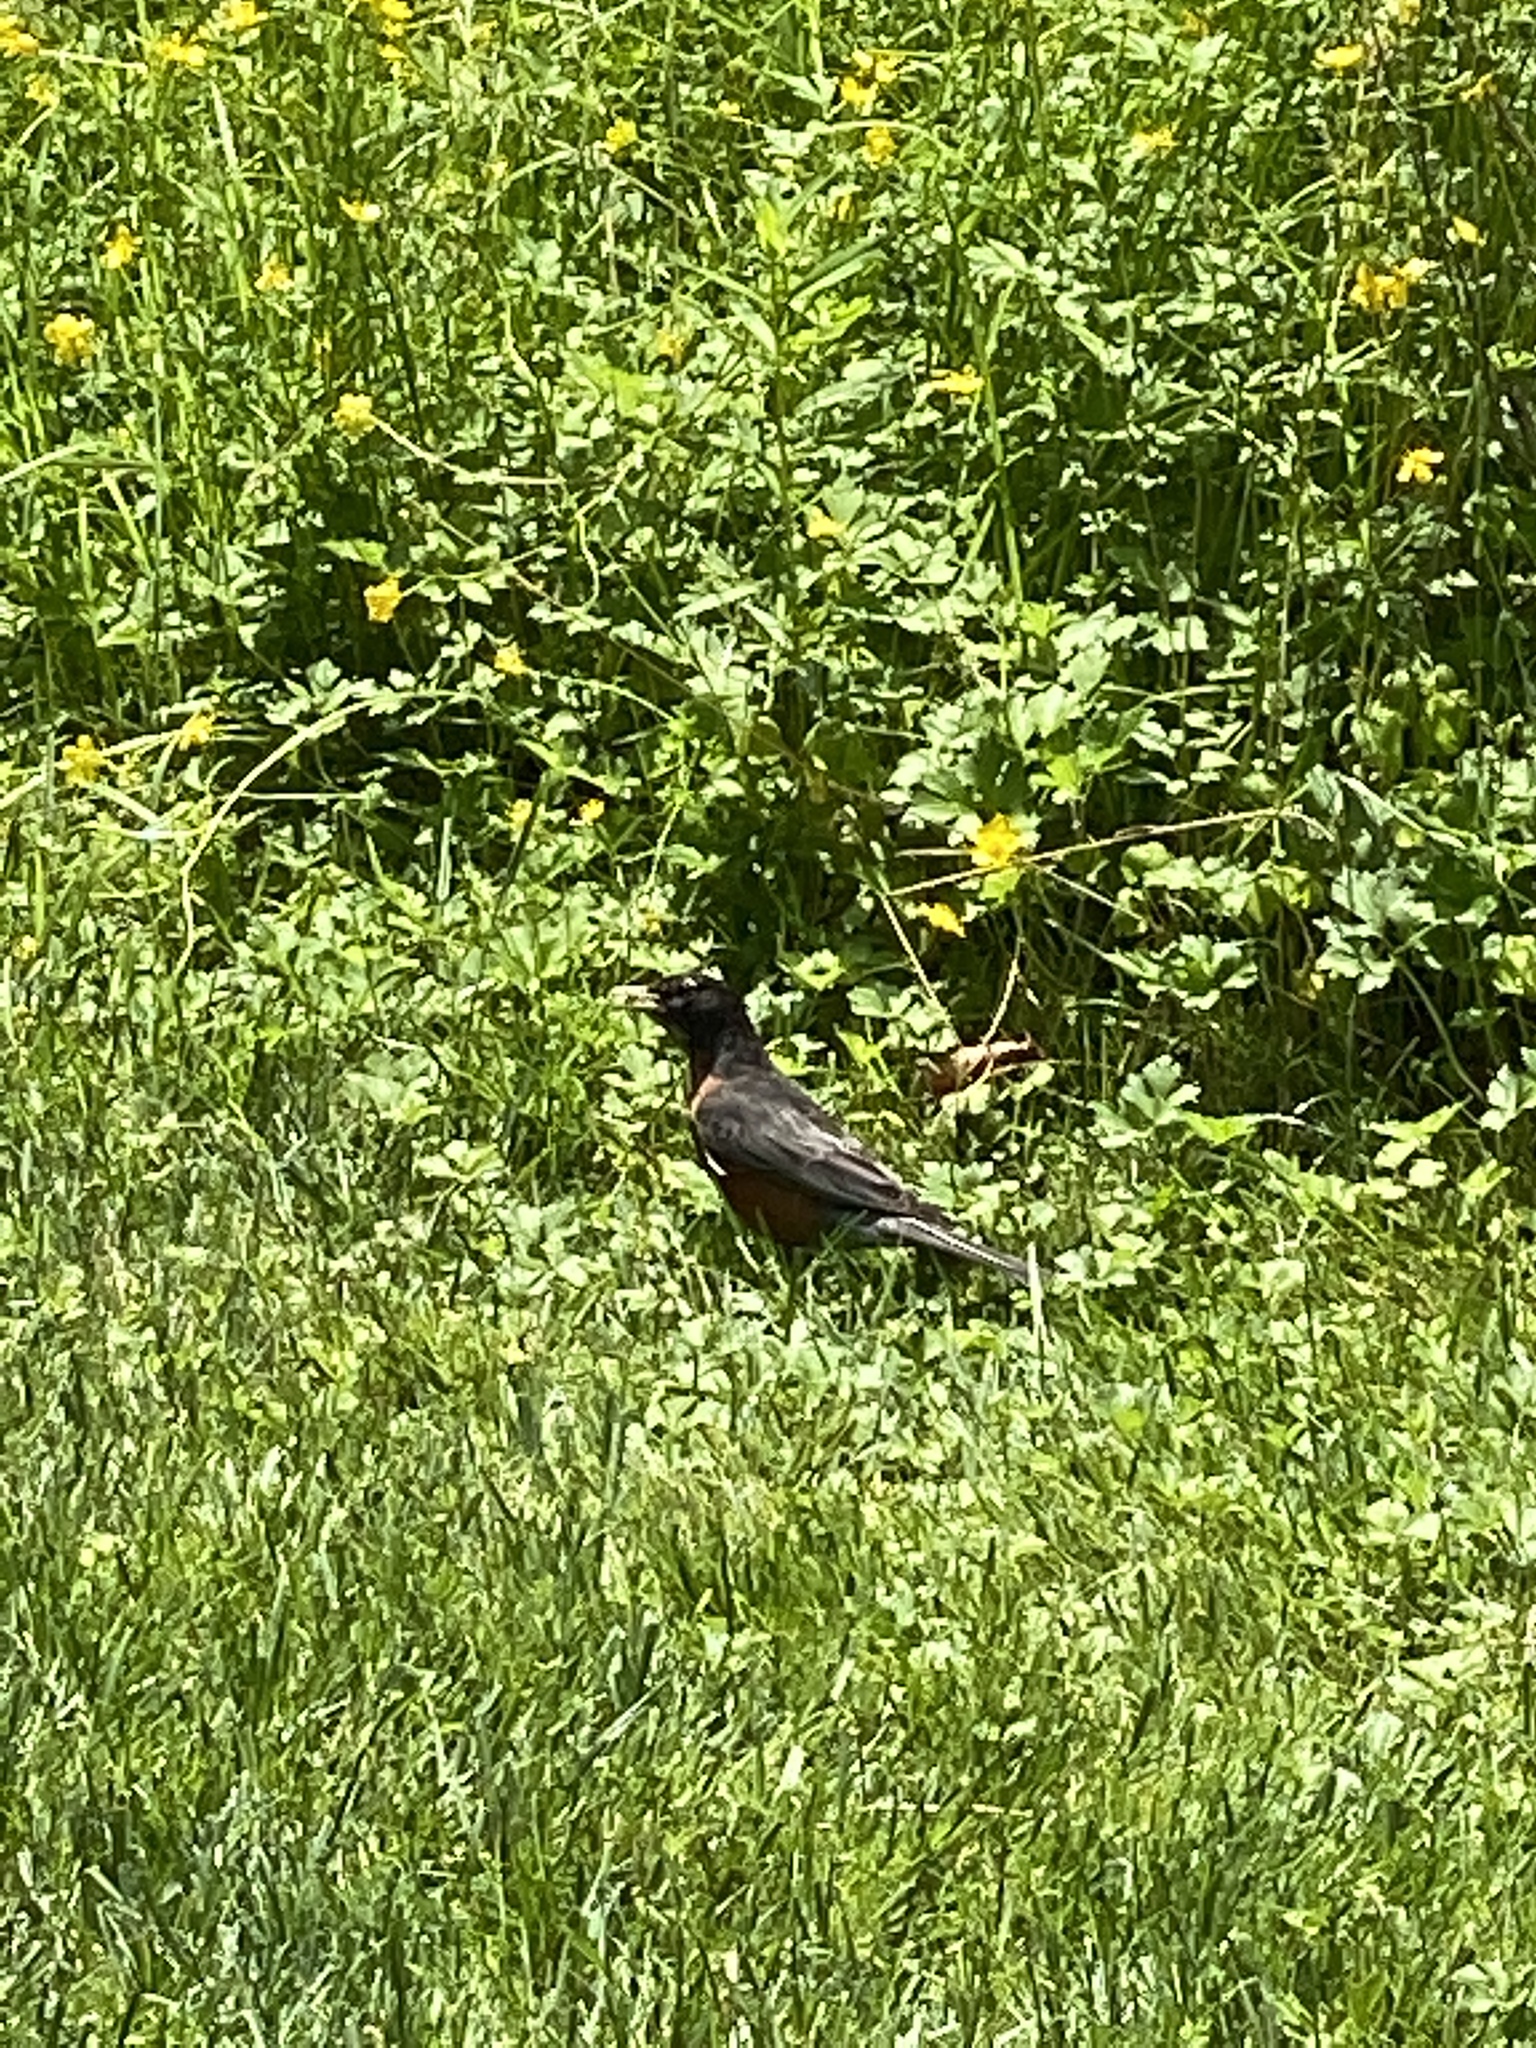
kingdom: Animalia
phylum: Chordata
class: Aves
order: Passeriformes
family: Turdidae
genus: Turdus
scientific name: Turdus migratorius
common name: American robin
